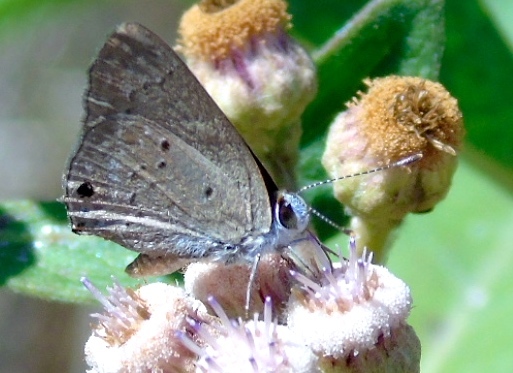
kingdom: Animalia
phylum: Arthropoda
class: Insecta
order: Lepidoptera
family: Lycaenidae
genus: Callicista
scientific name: Callicista columella
